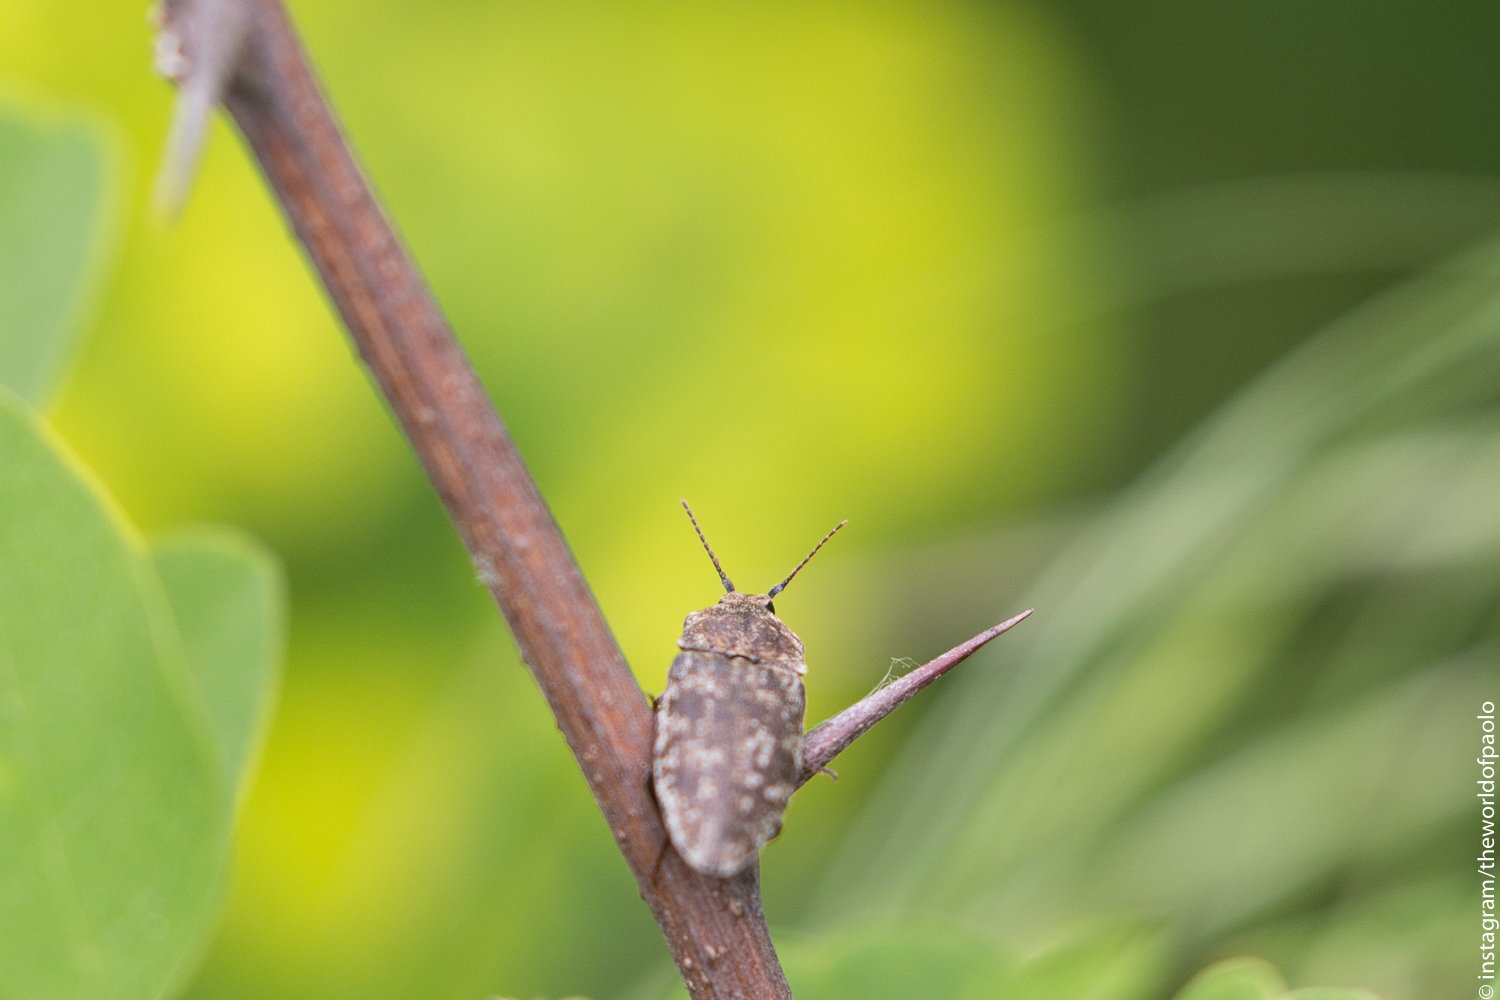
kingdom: Animalia
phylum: Arthropoda
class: Insecta
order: Coleoptera
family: Elateridae
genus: Agrypnus
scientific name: Agrypnus murinus
